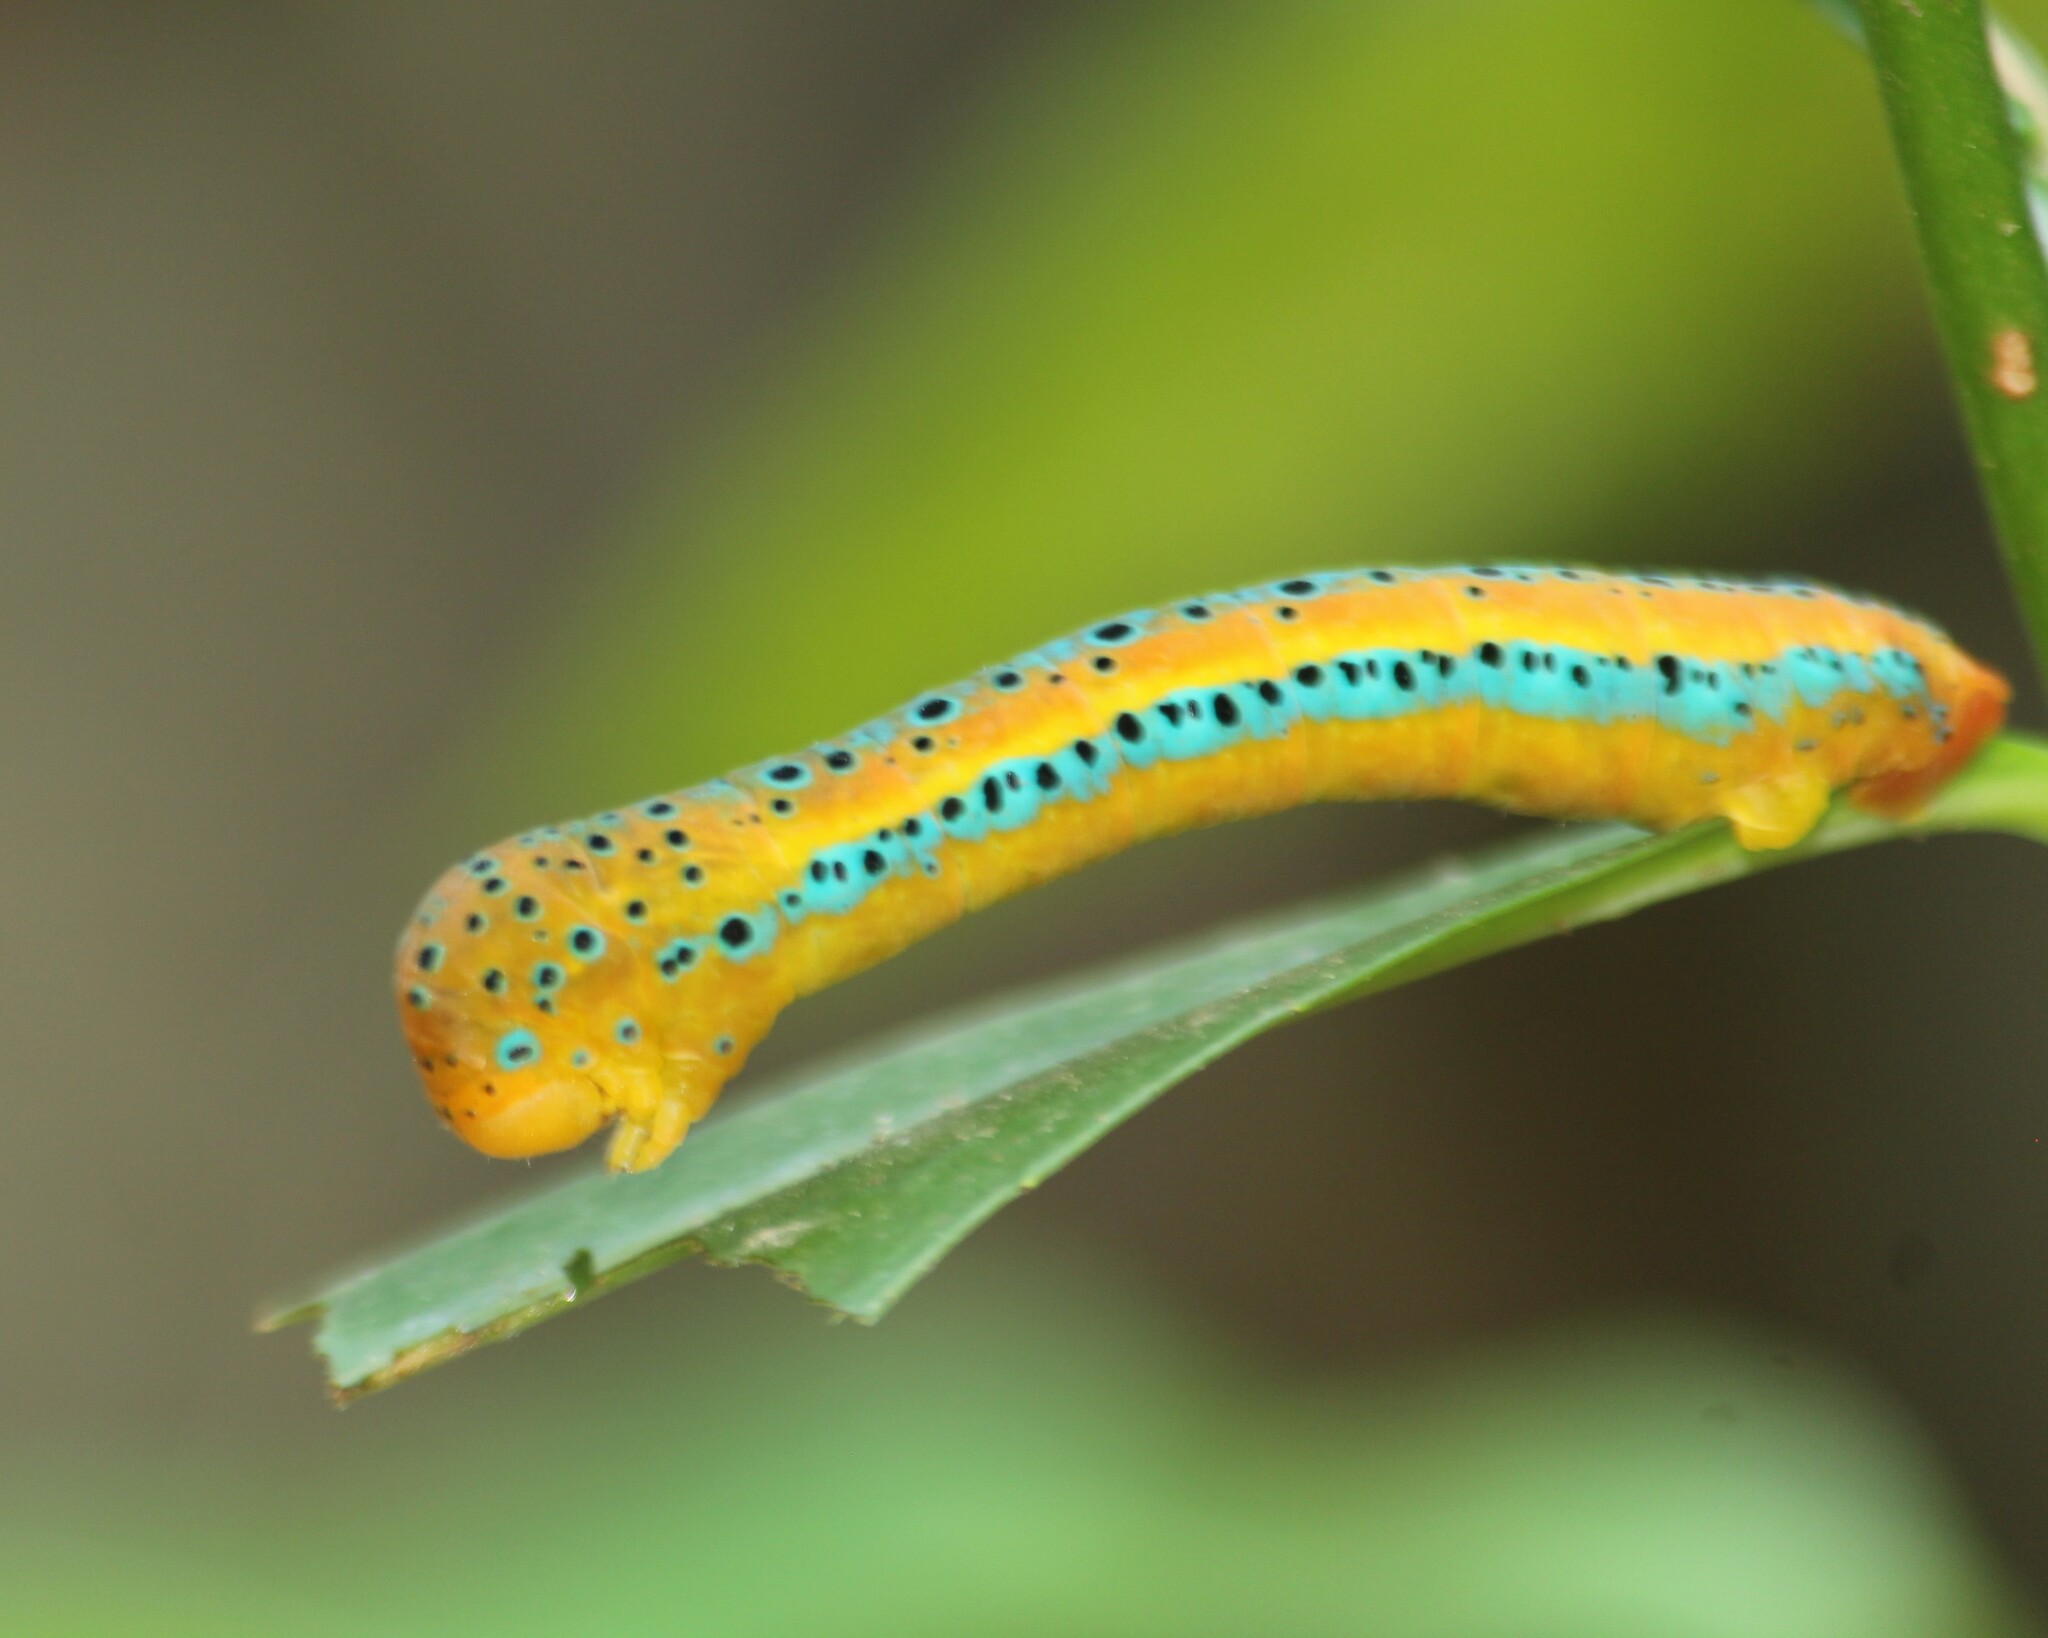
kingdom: Animalia
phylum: Arthropoda
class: Insecta
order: Lepidoptera
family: Geometridae
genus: Dysphania
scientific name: Dysphania percota
